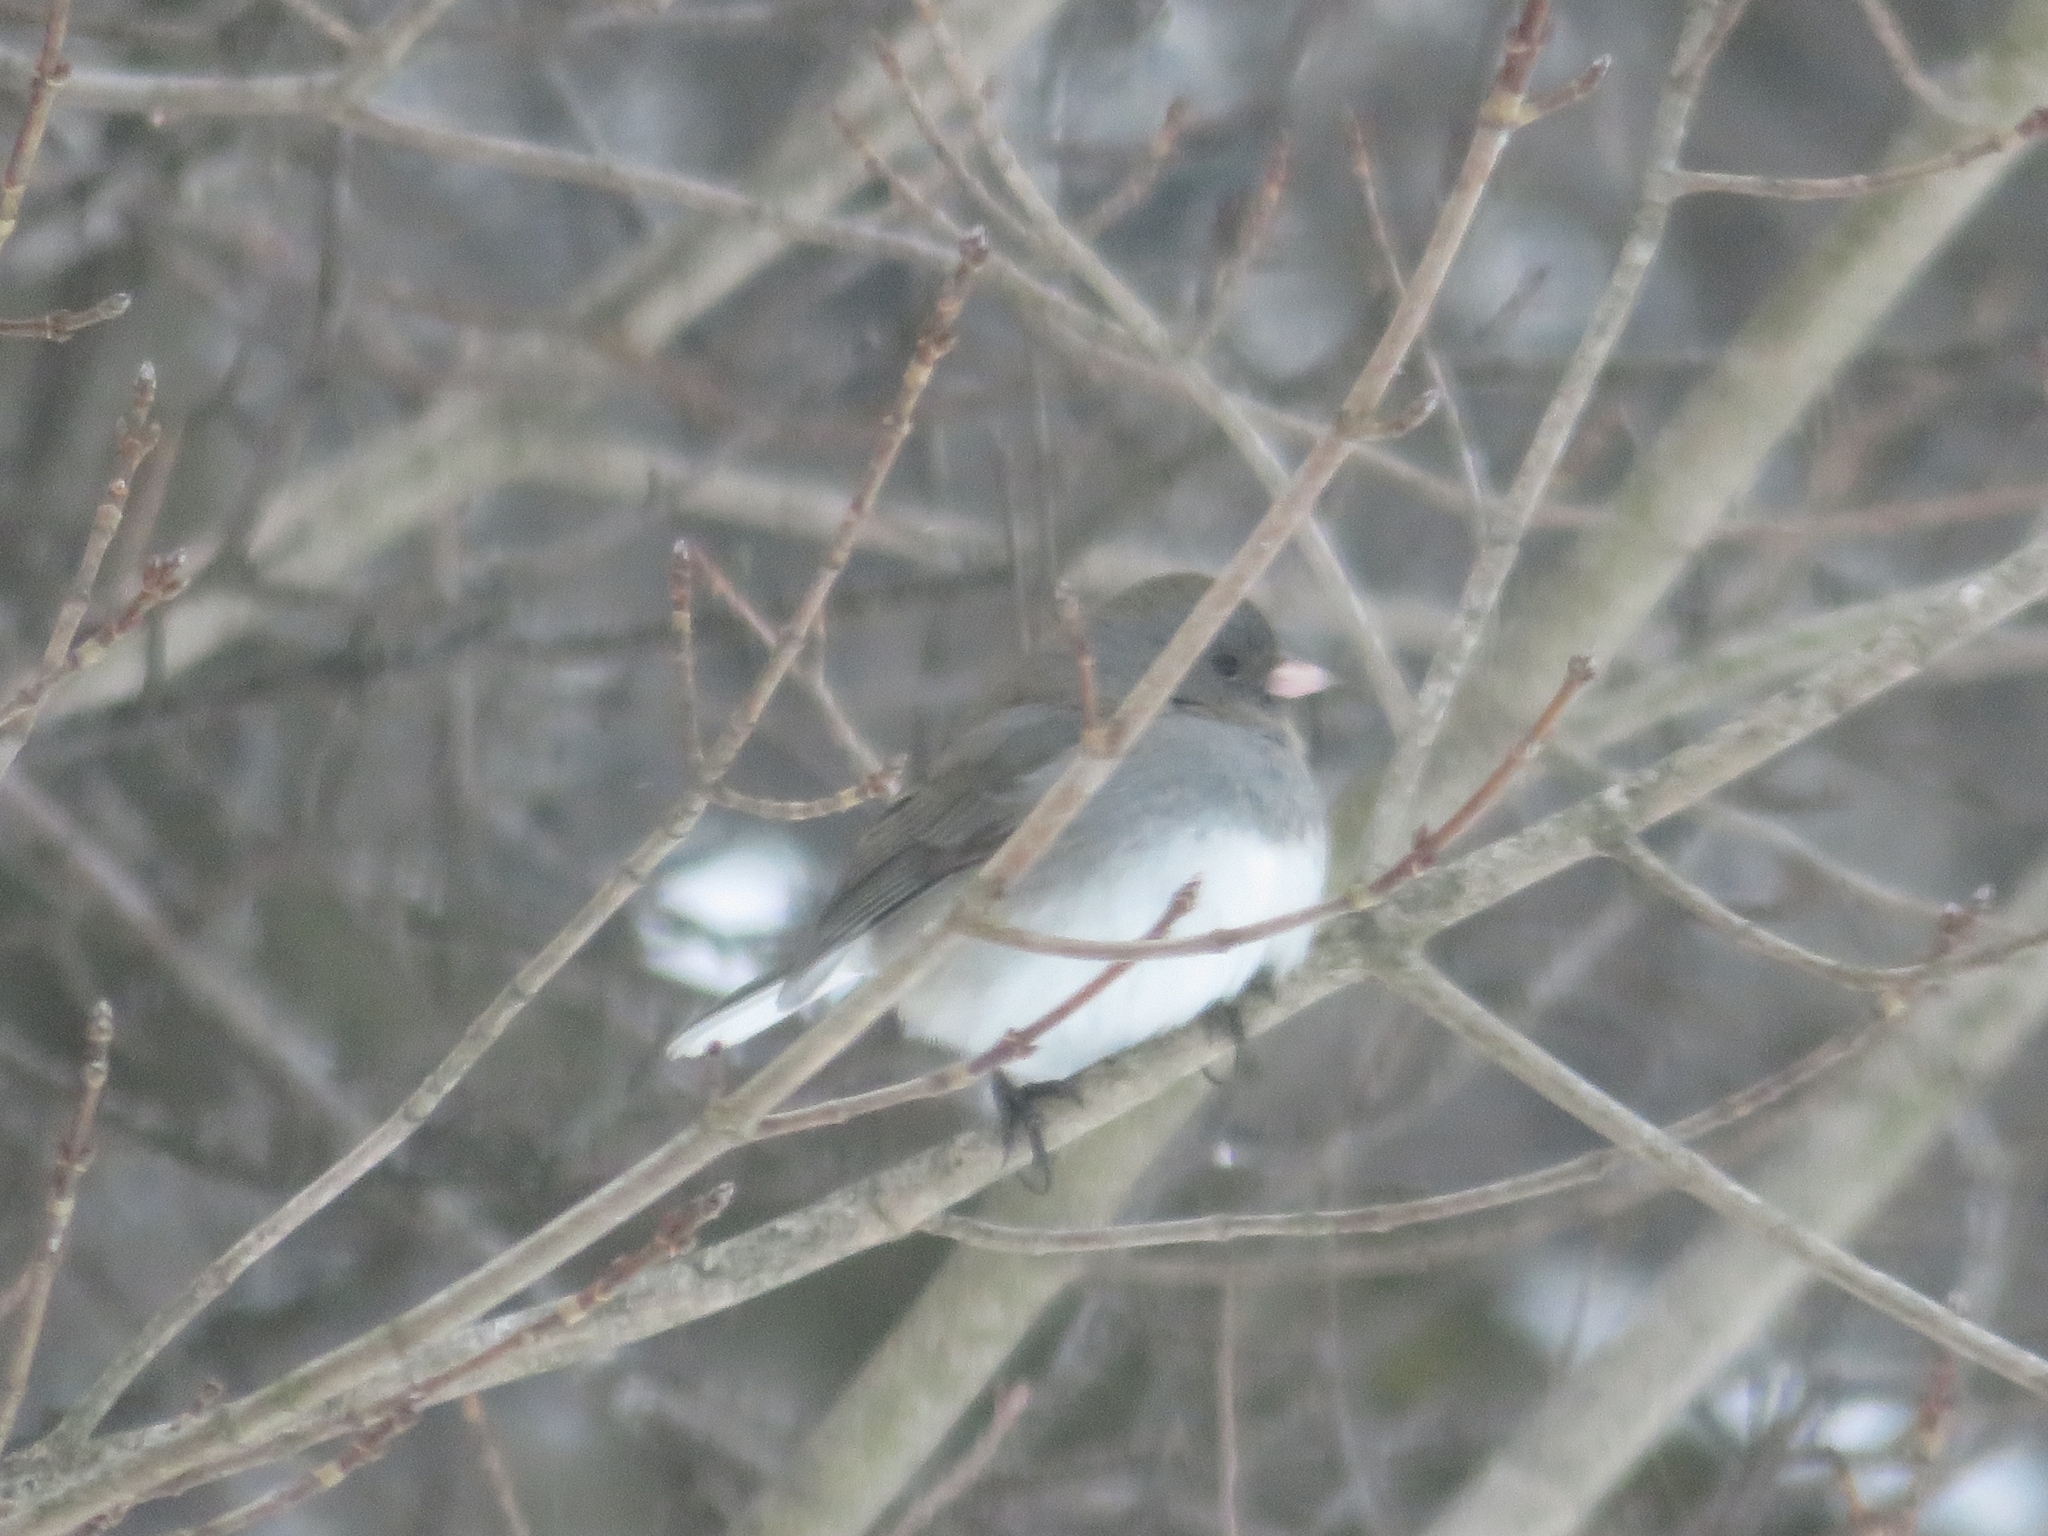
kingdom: Animalia
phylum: Chordata
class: Aves
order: Passeriformes
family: Passerellidae
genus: Junco
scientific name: Junco hyemalis
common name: Dark-eyed junco
